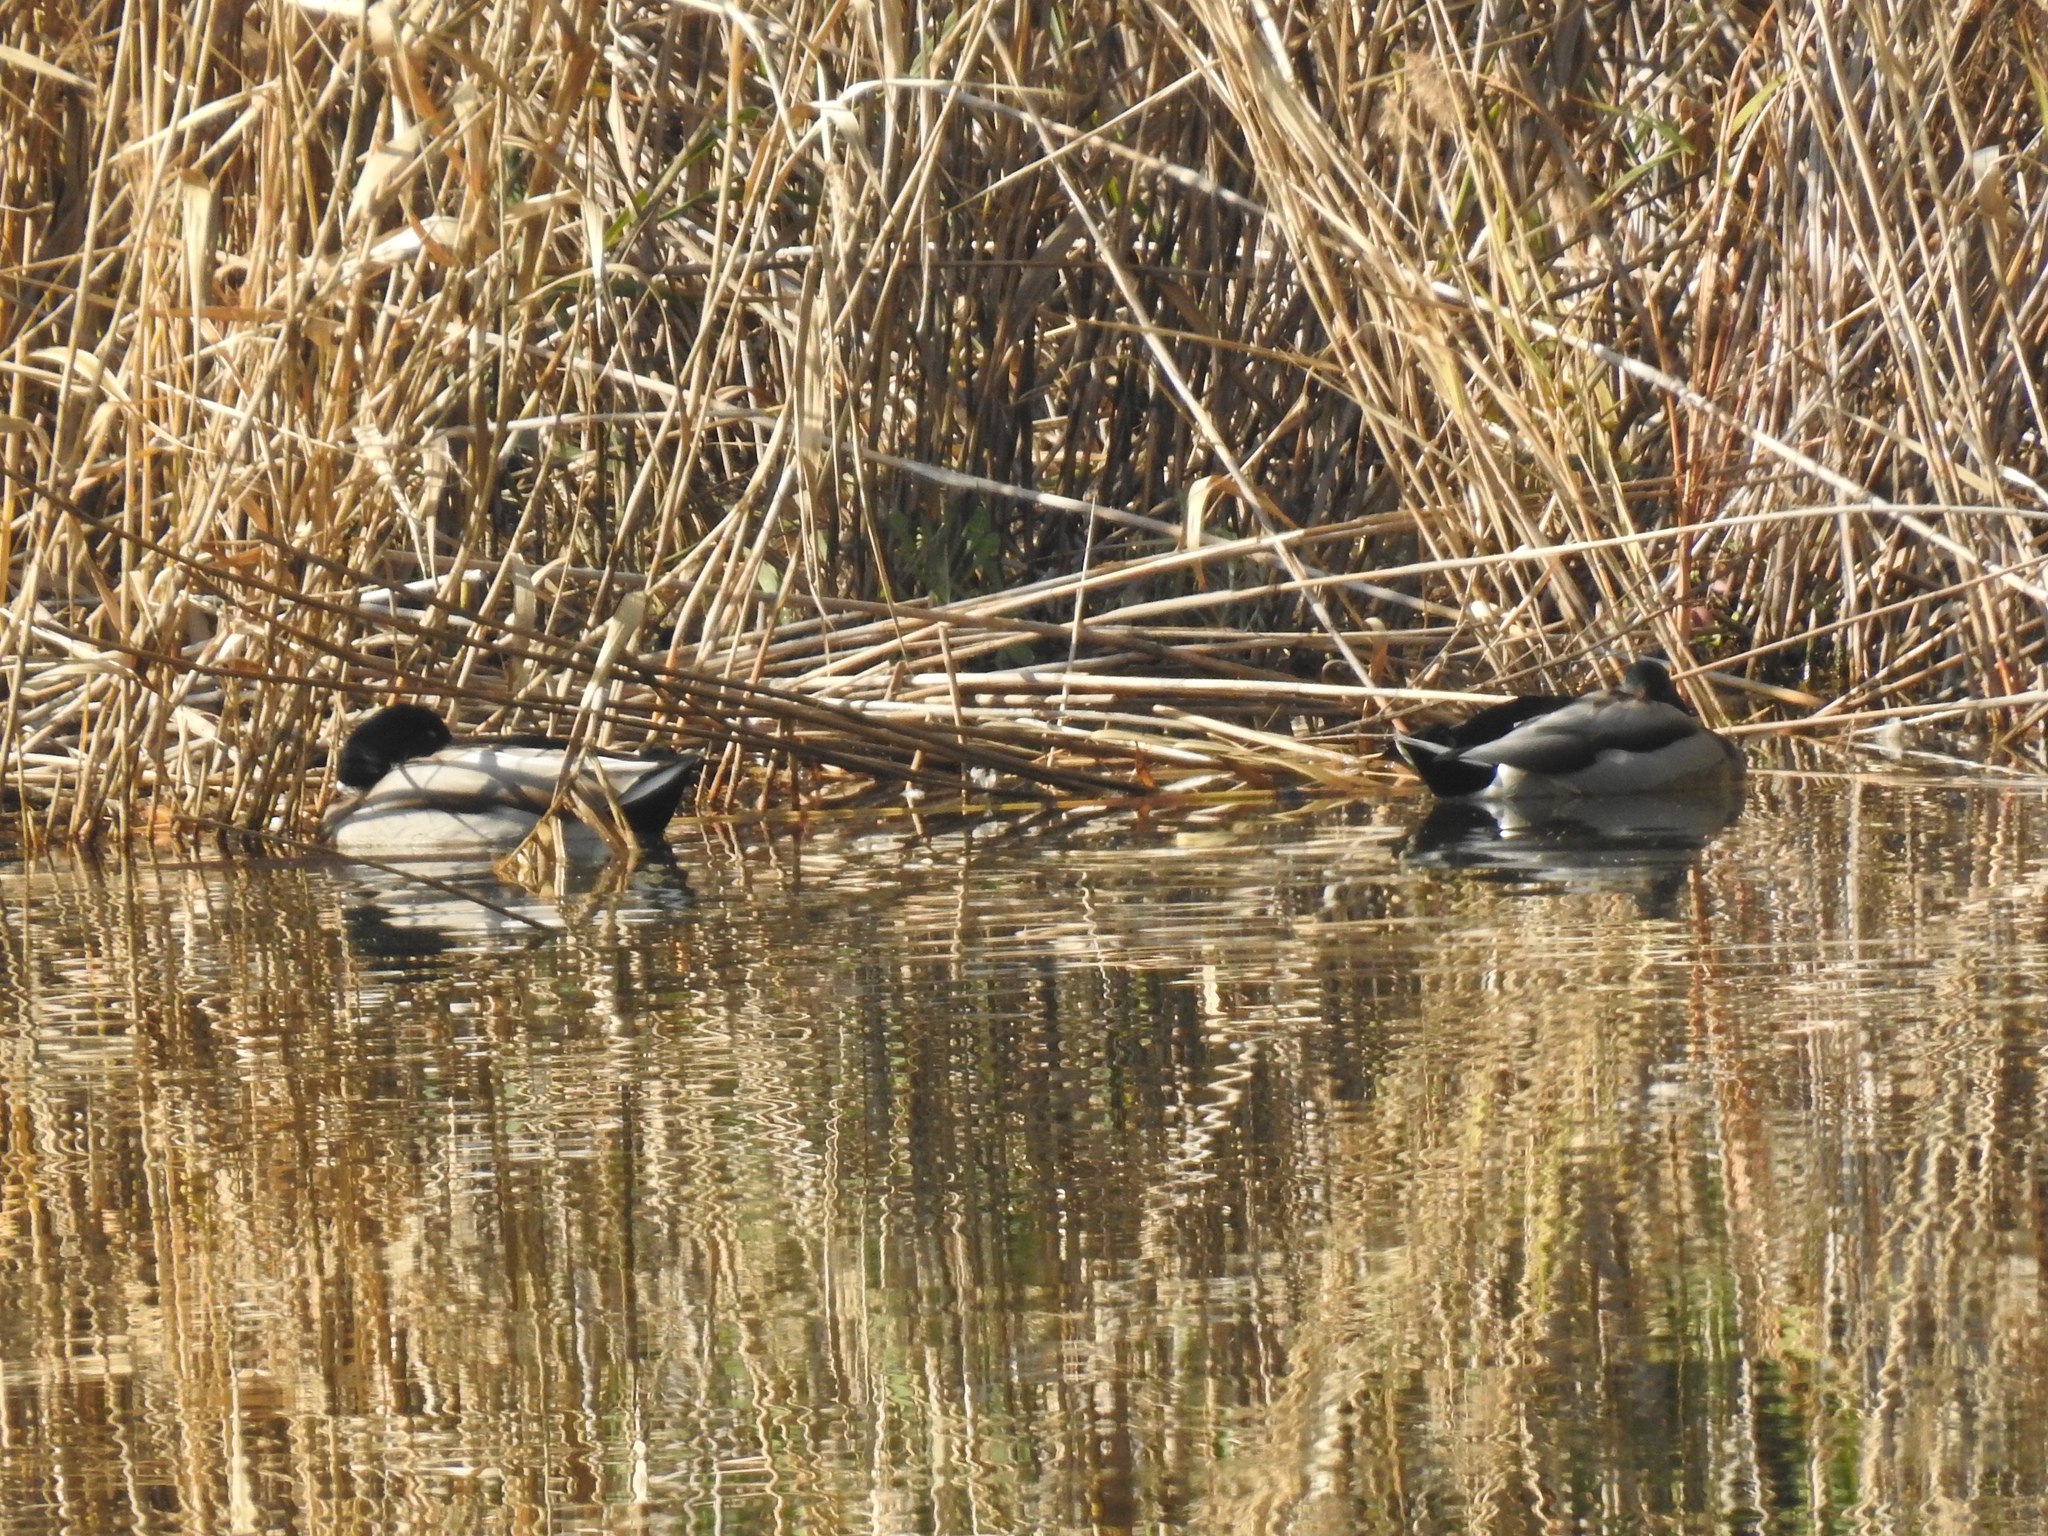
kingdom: Animalia
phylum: Chordata
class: Aves
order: Anseriformes
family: Anatidae
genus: Anas
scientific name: Anas platyrhynchos
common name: Mallard
